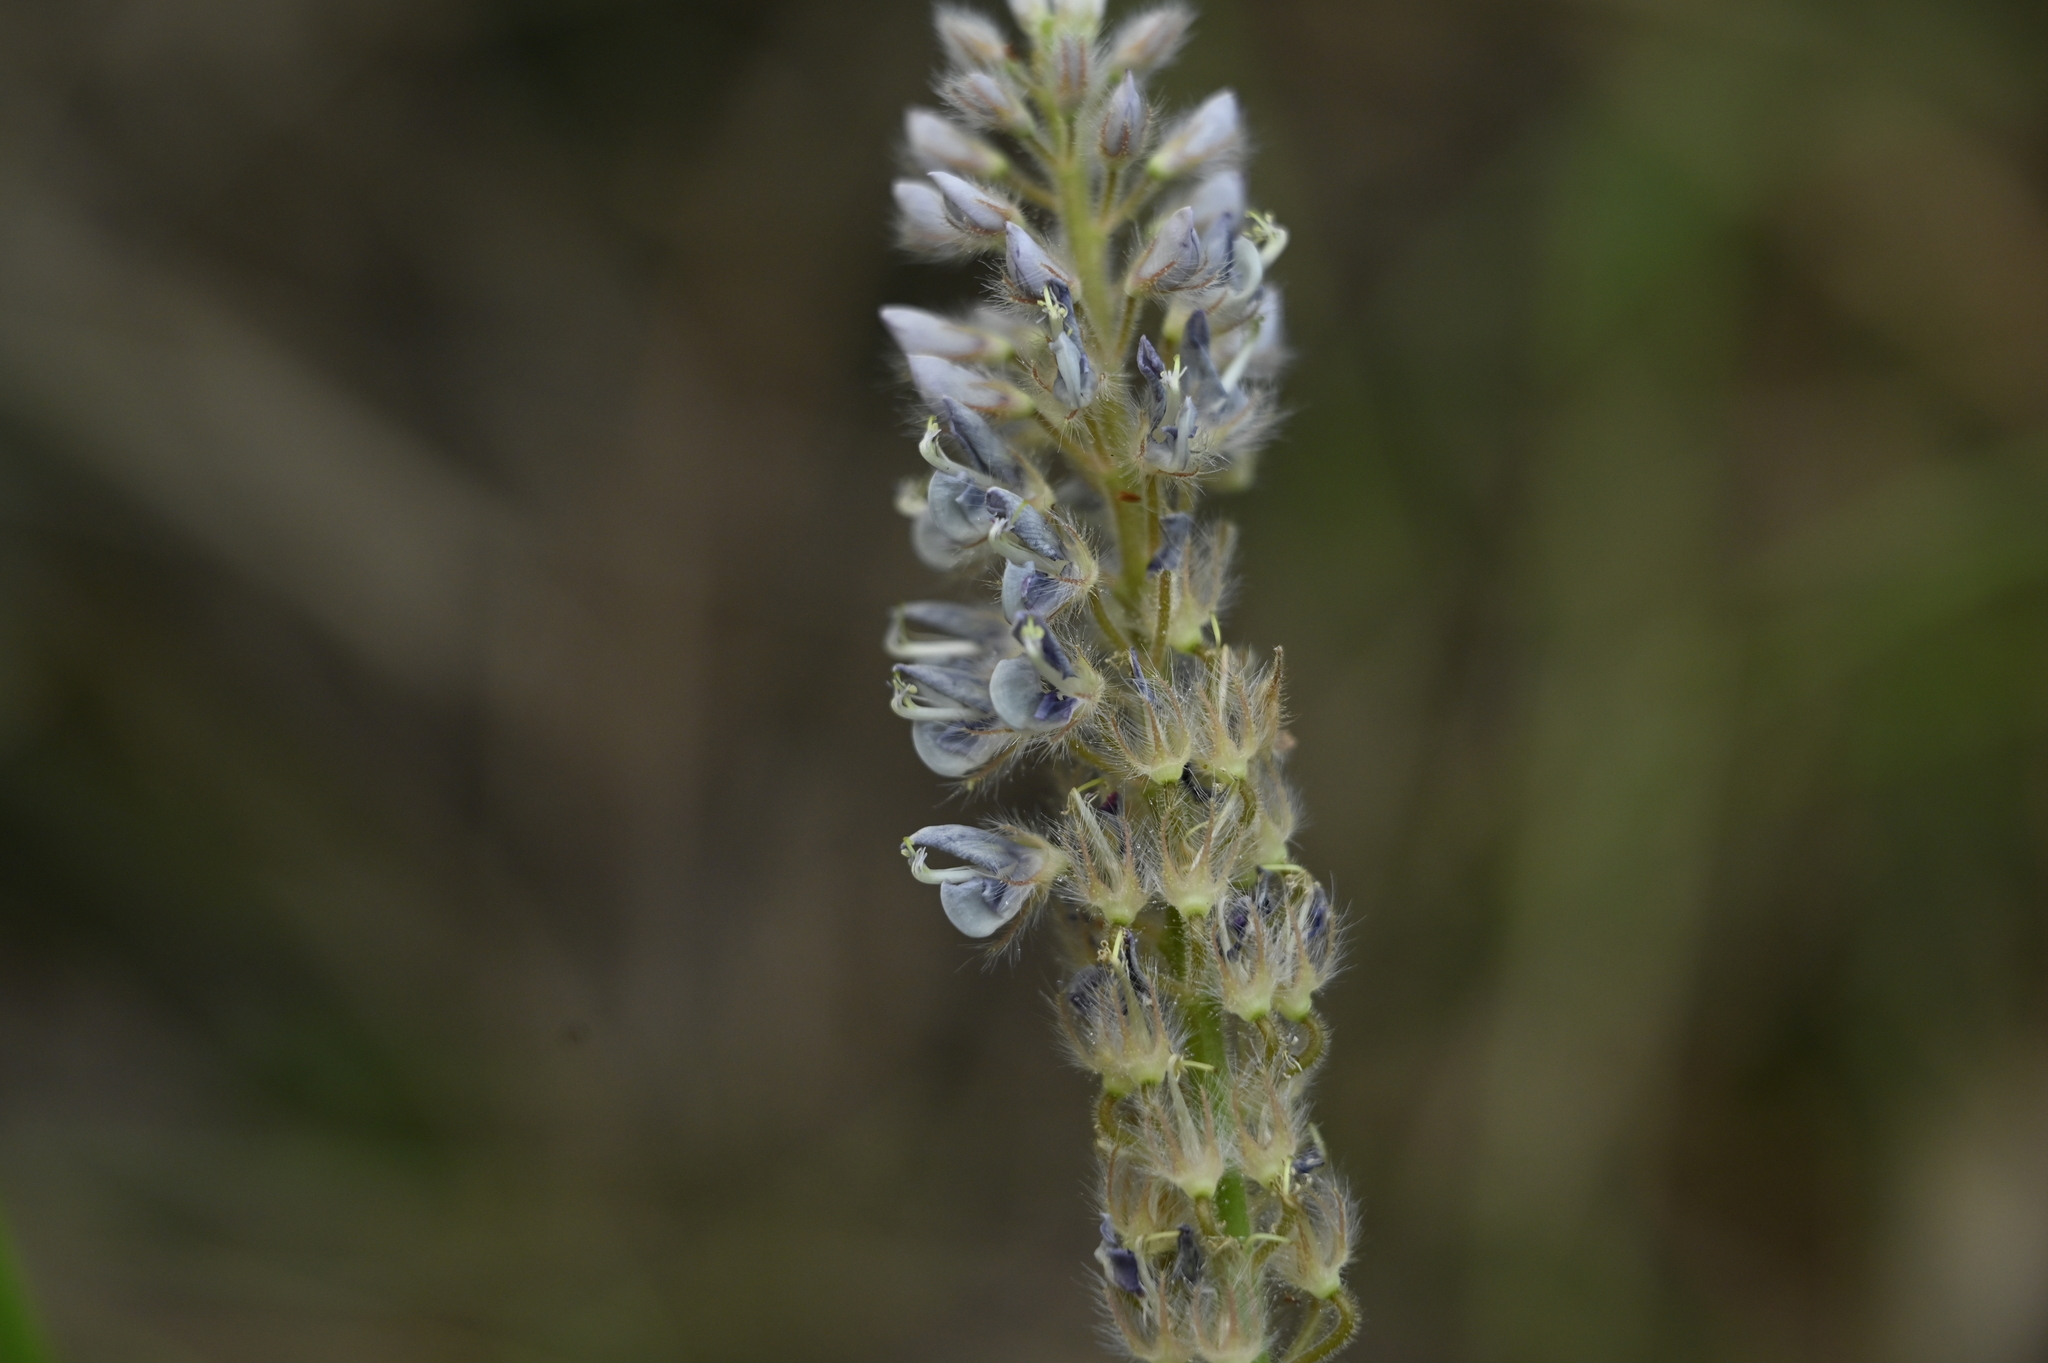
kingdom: Plantae
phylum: Tracheophyta
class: Magnoliopsida
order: Fabales
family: Fabaceae
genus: Uraria
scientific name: Uraria picta
